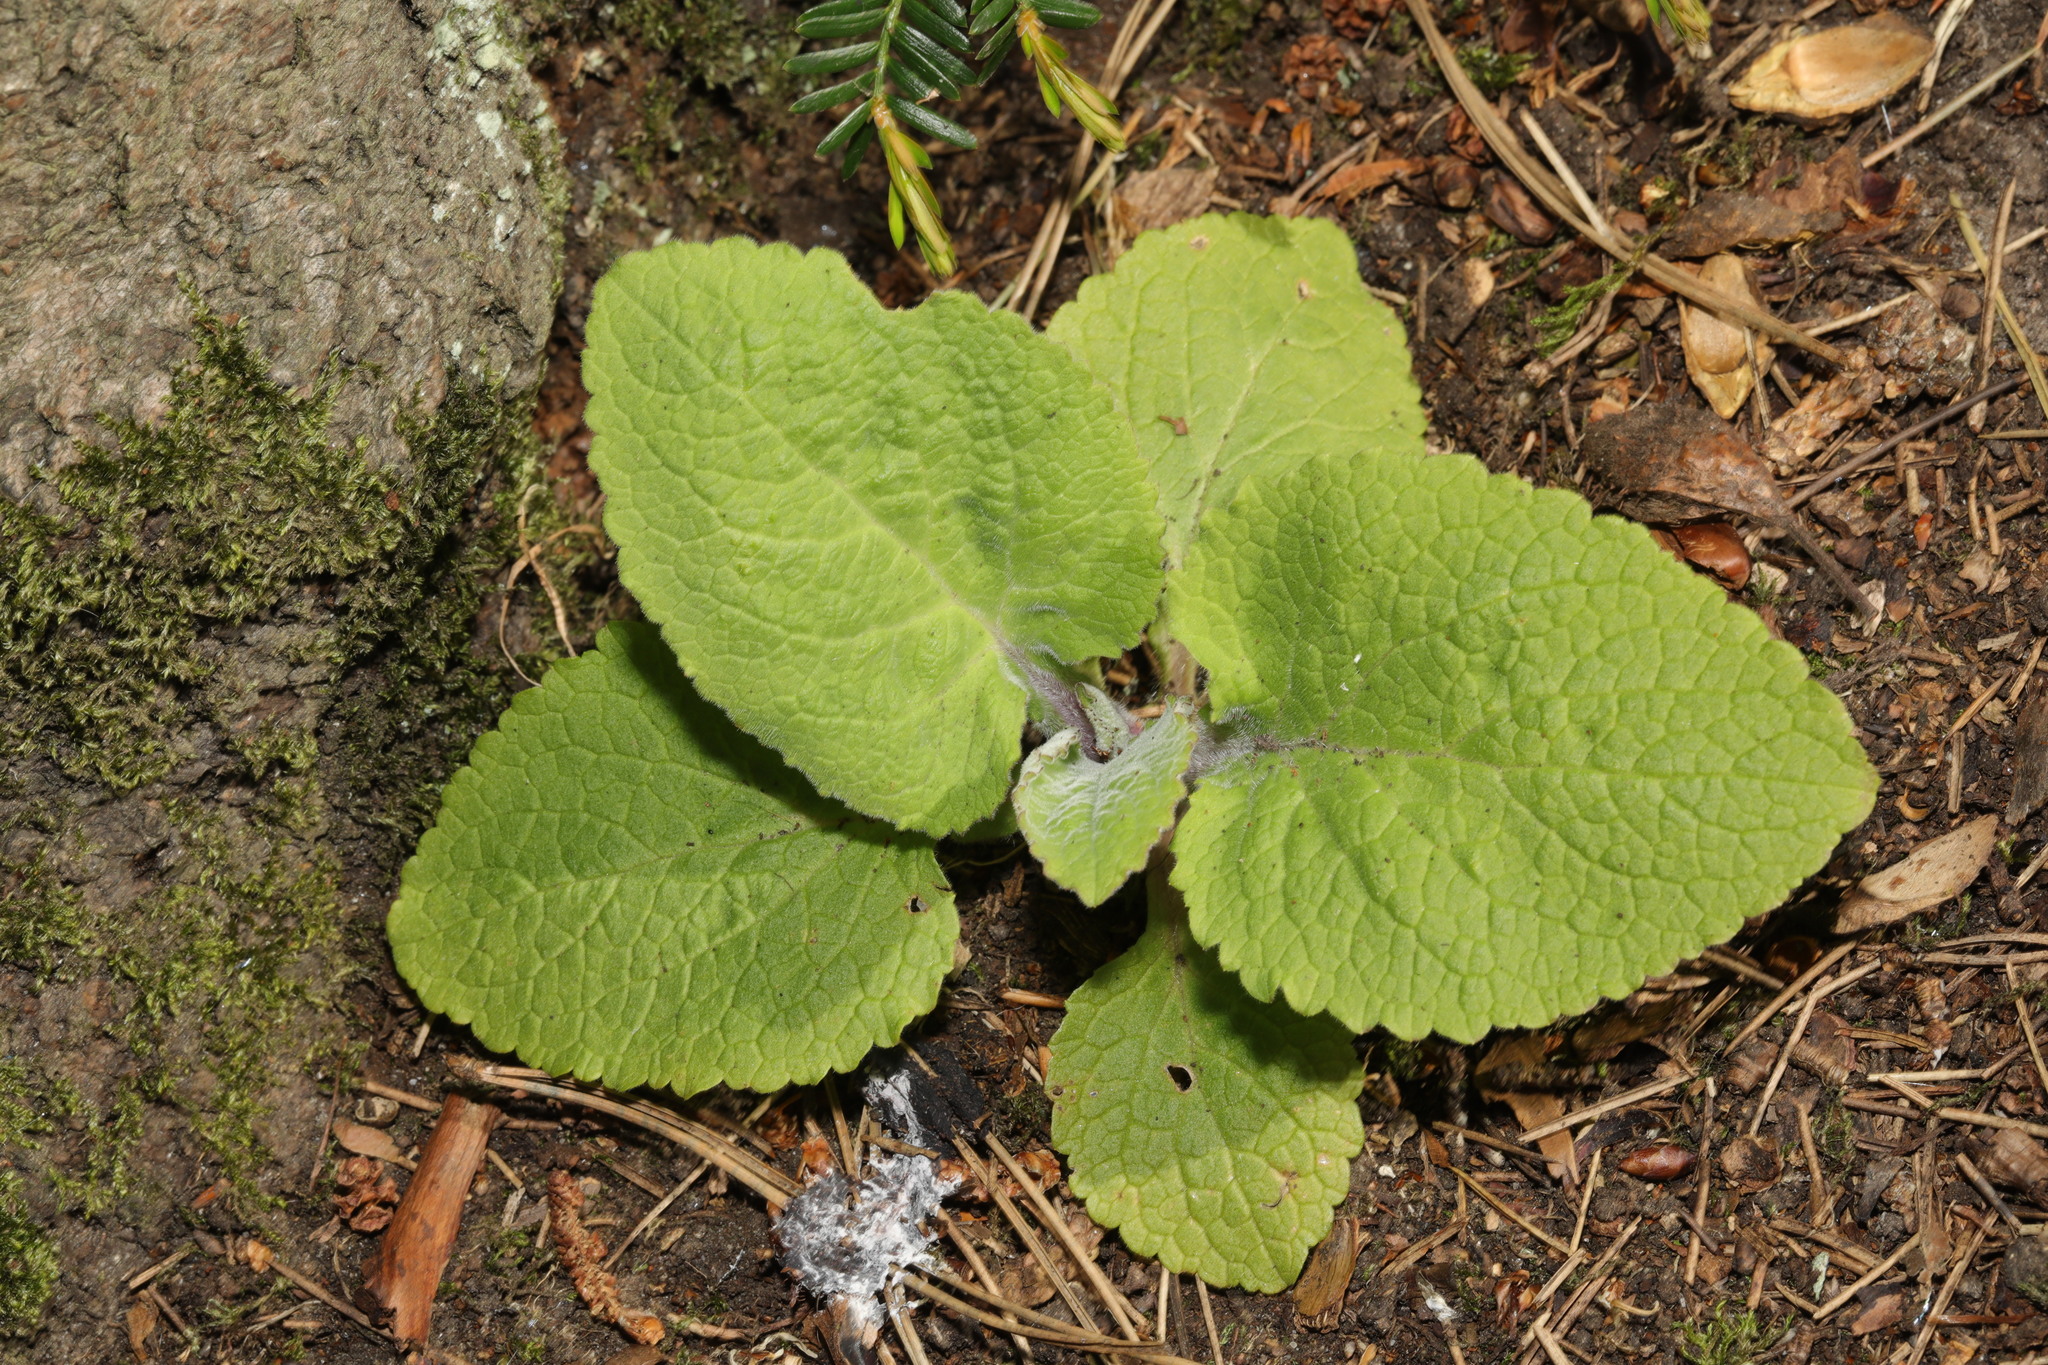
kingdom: Plantae
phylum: Tracheophyta
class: Magnoliopsida
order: Lamiales
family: Plantaginaceae
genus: Digitalis
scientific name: Digitalis purpurea
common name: Foxglove
